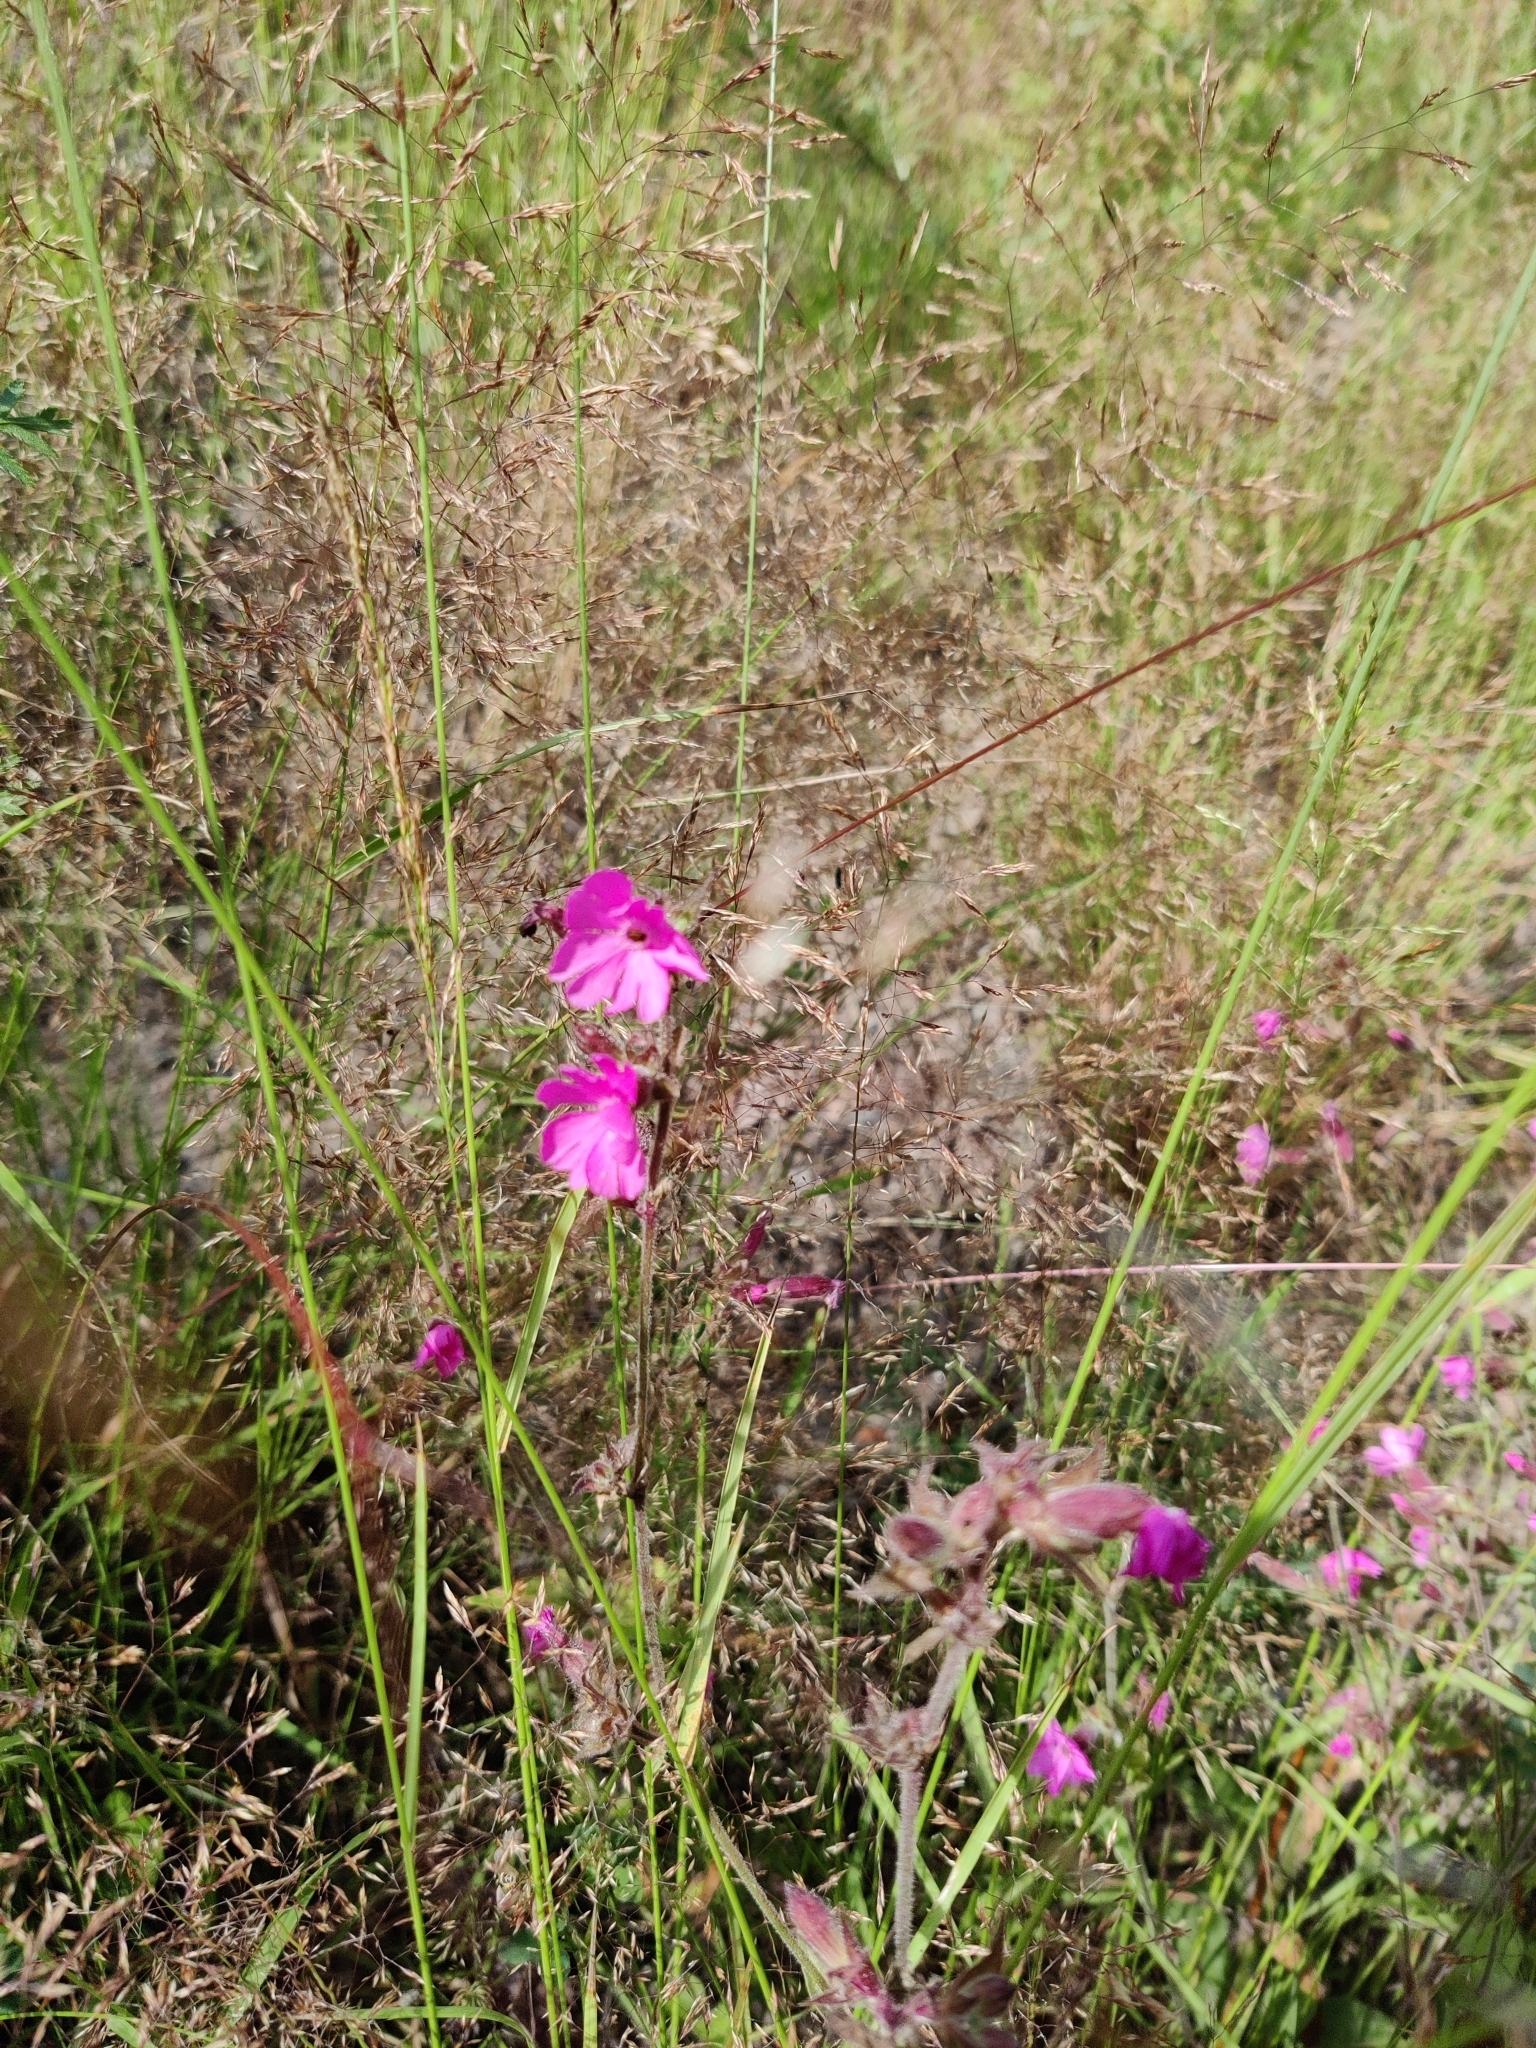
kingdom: Plantae
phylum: Tracheophyta
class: Magnoliopsida
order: Caryophyllales
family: Caryophyllaceae
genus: Silene
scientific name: Silene dioica
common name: Red campion
